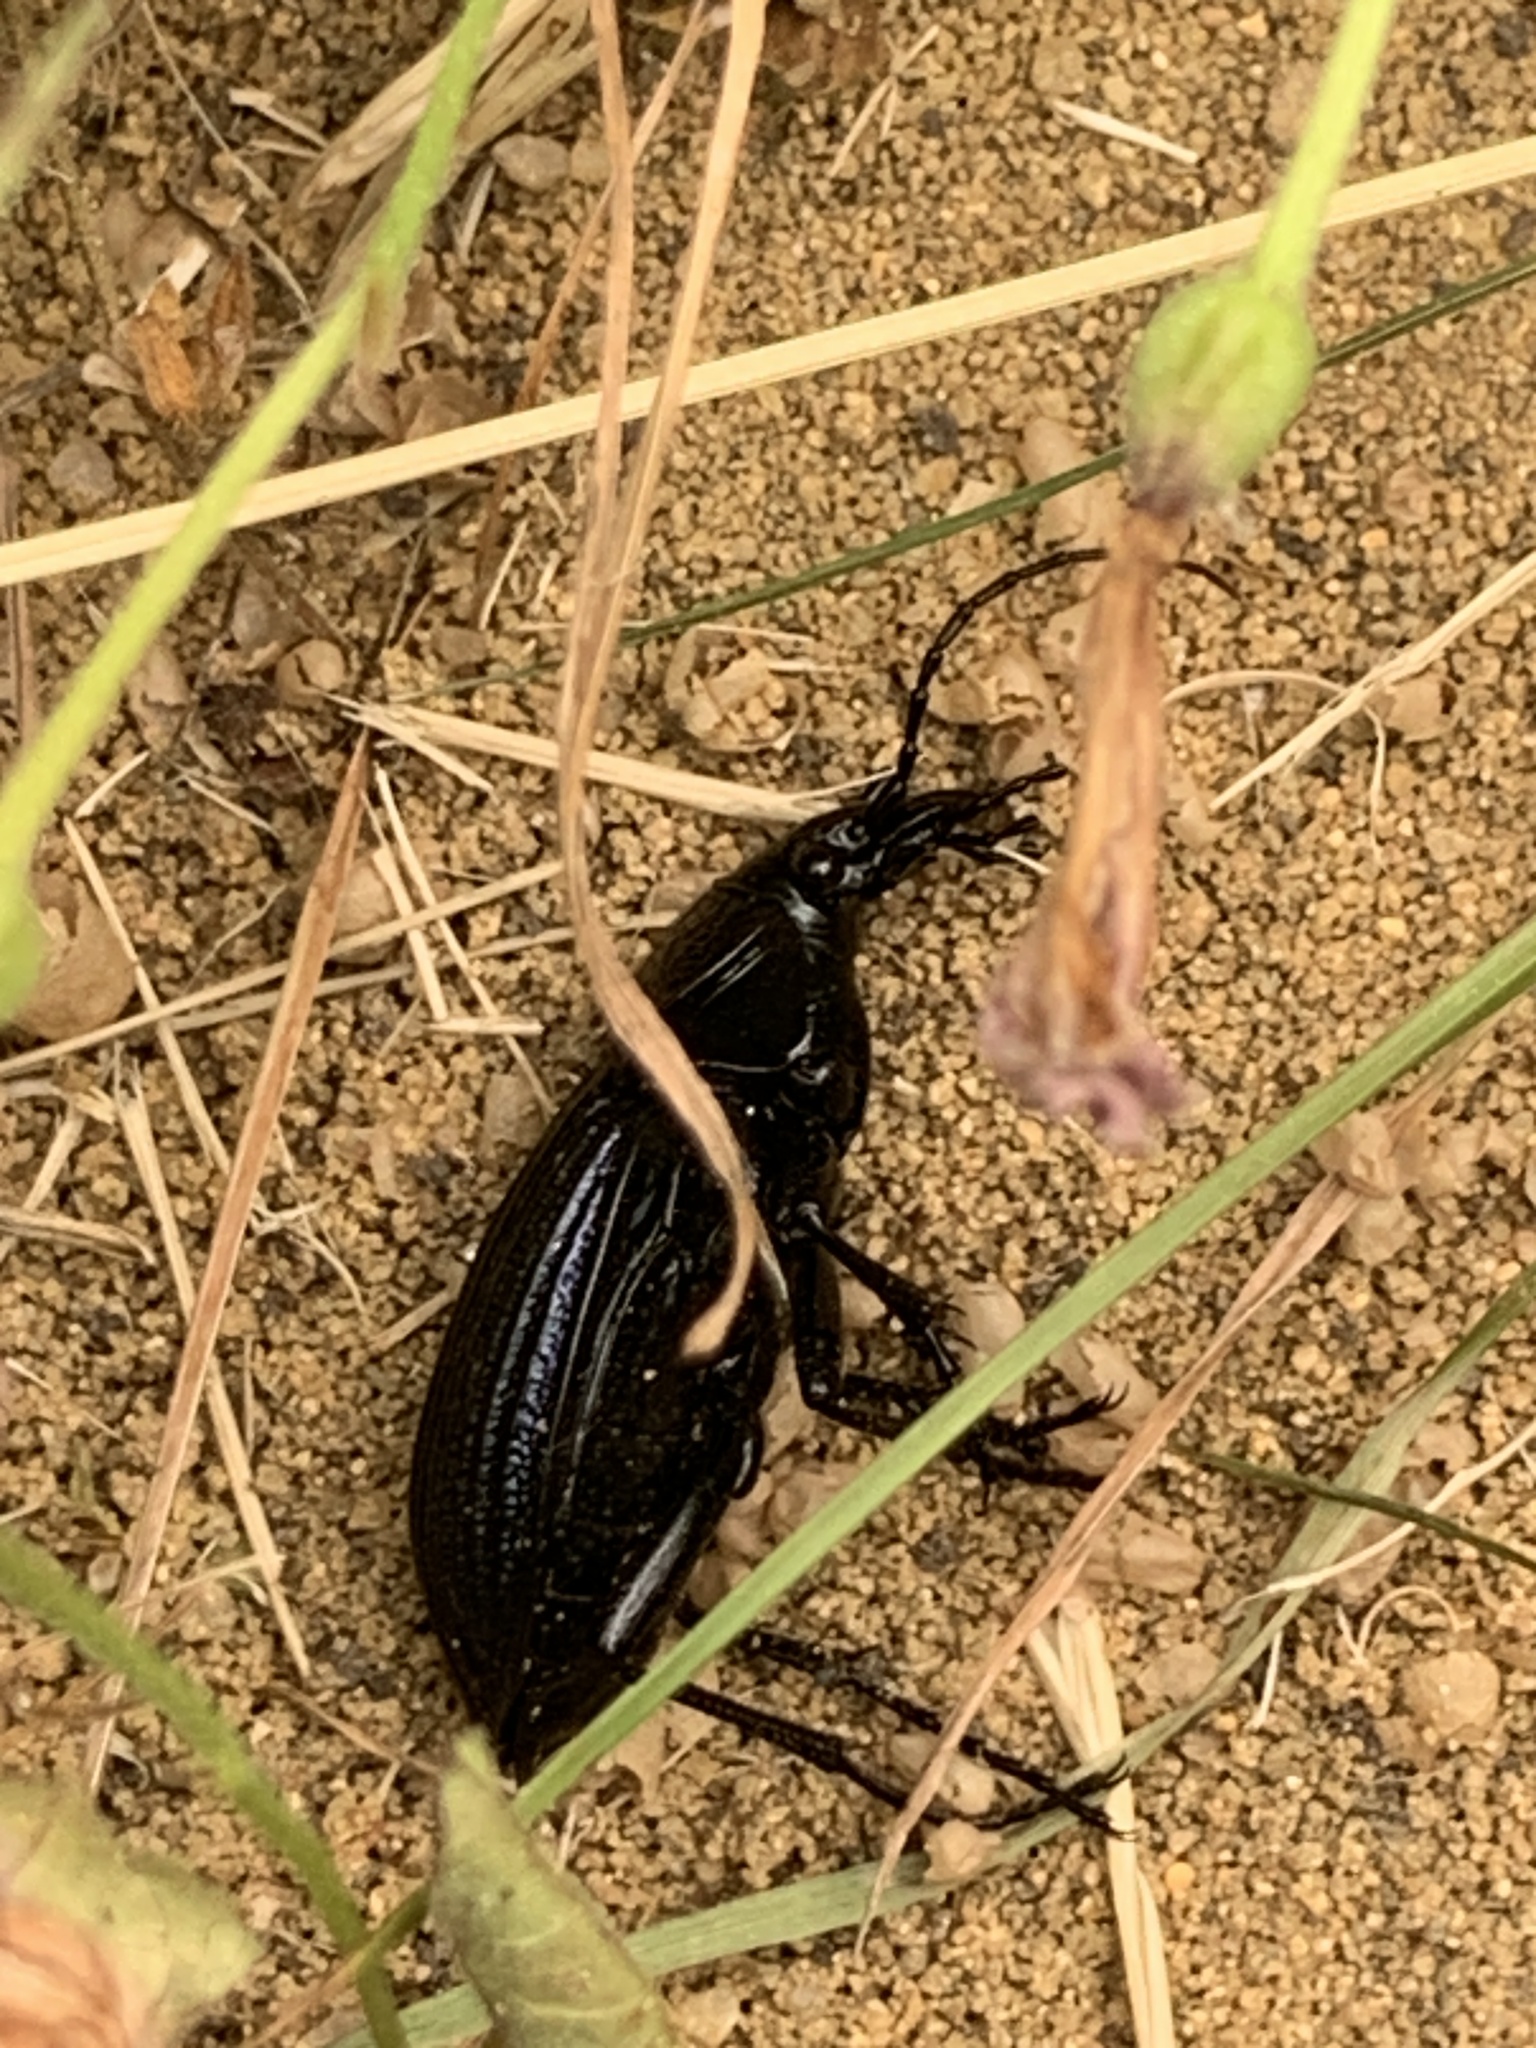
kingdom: Animalia
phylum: Arthropoda
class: Insecta
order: Coleoptera
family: Carabidae
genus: Carabus
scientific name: Carabus exaratus
